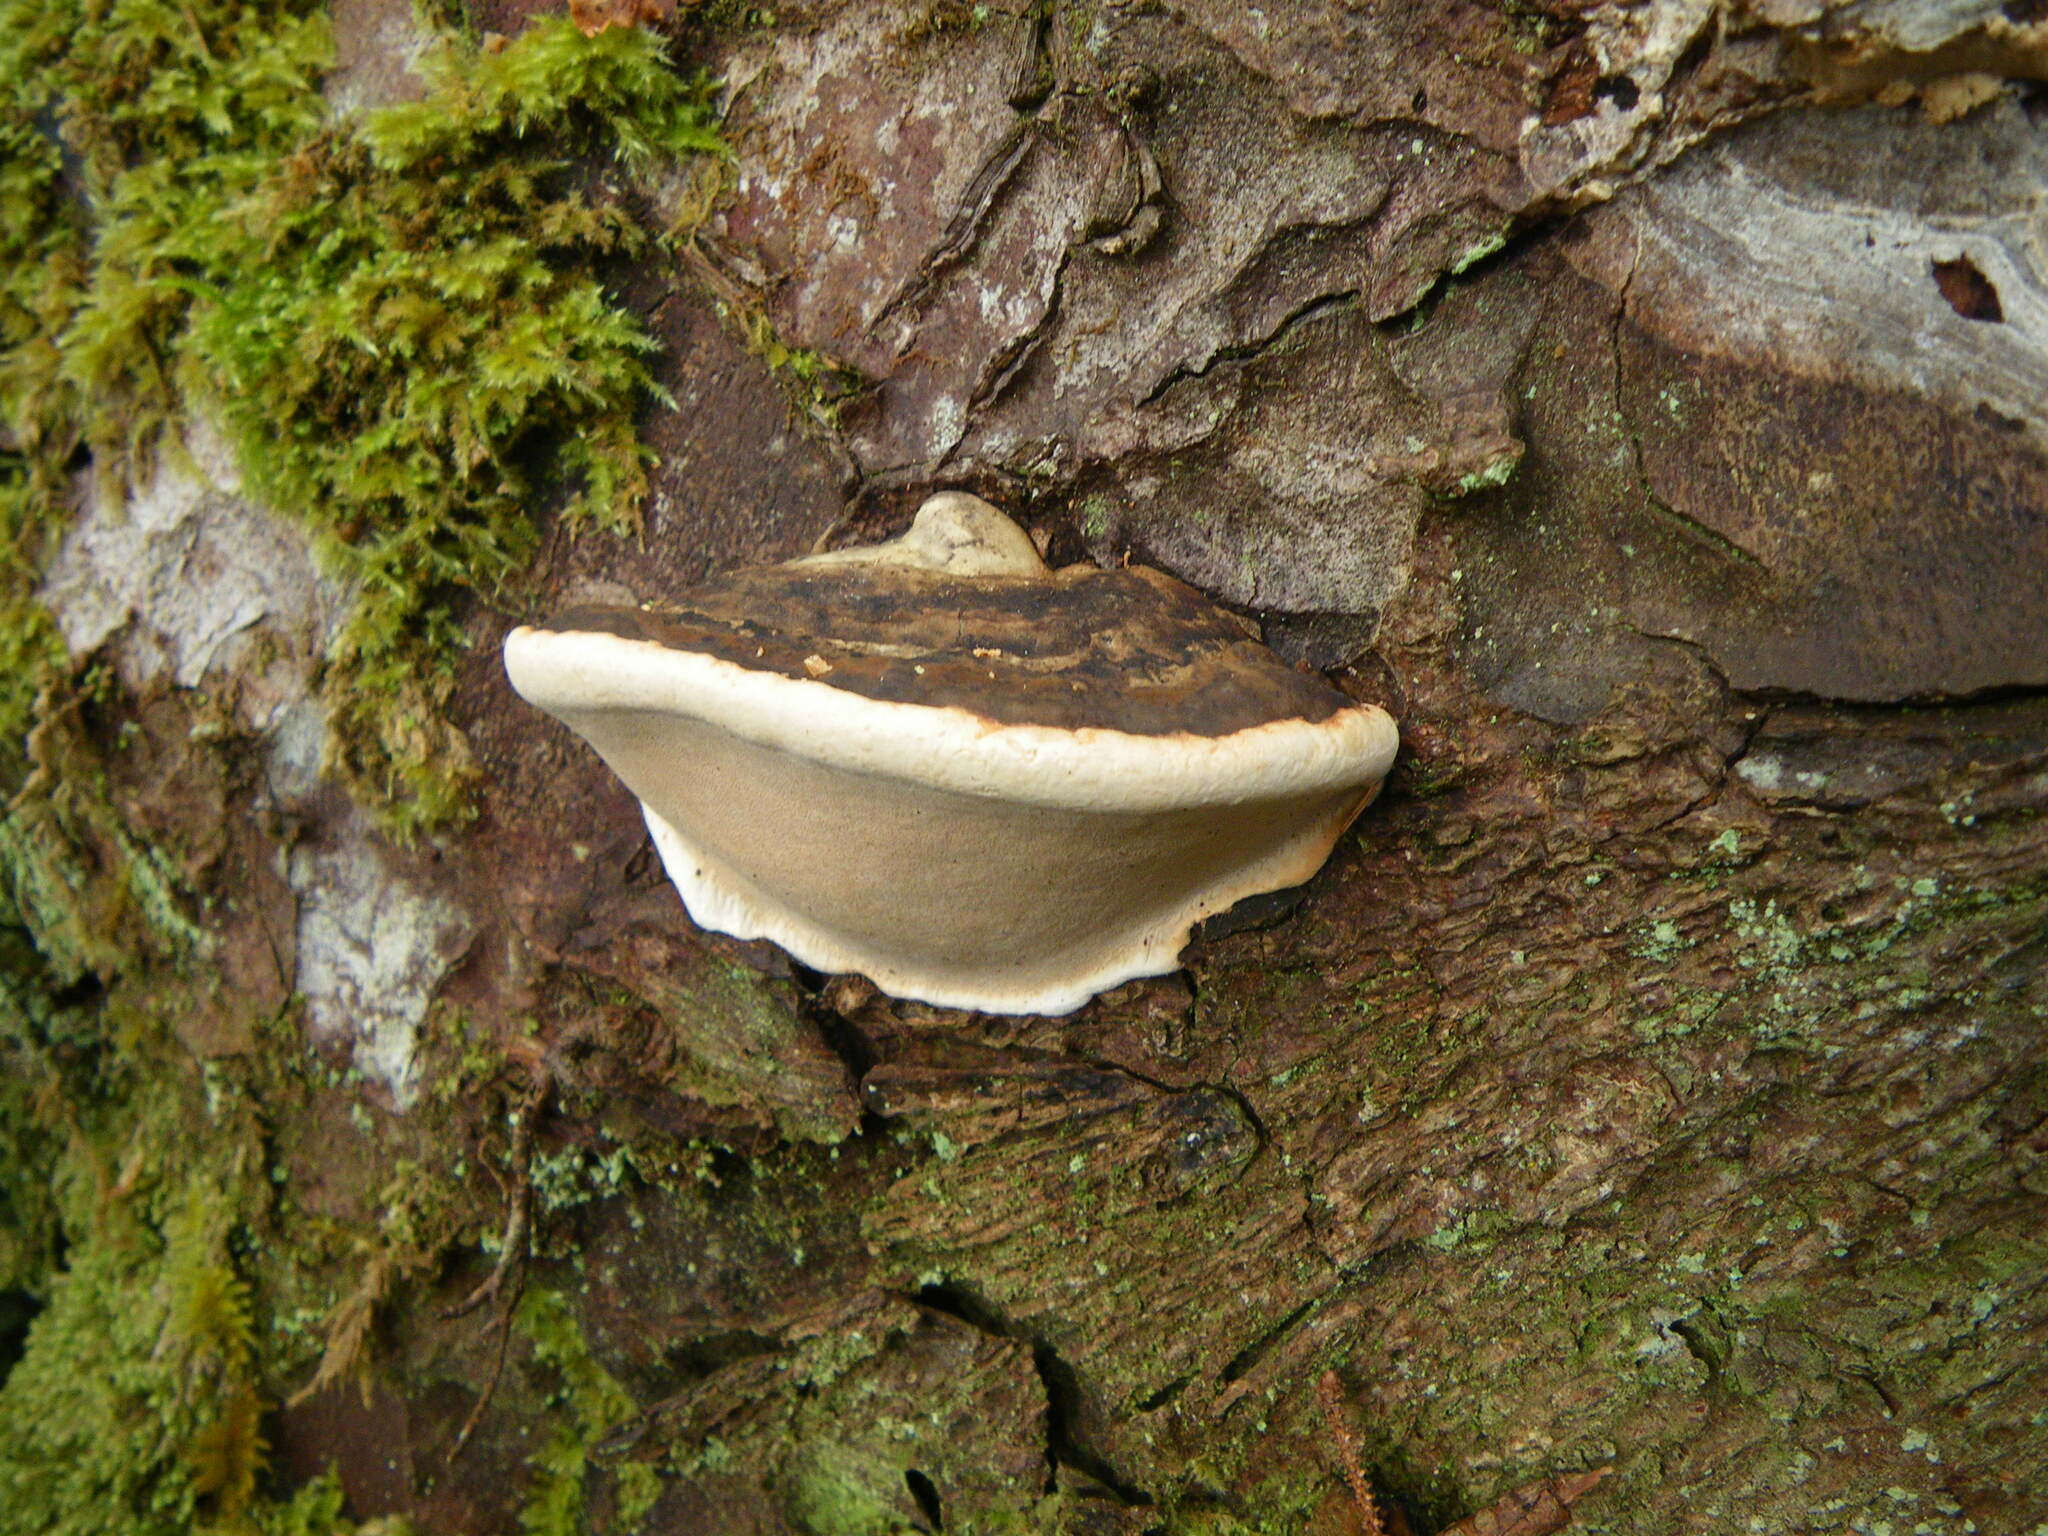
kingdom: Fungi
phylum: Basidiomycota
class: Agaricomycetes
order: Polyporales
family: Fomitopsidaceae
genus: Fomitopsis
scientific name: Fomitopsis ochracea
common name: American brown fomitopsis
